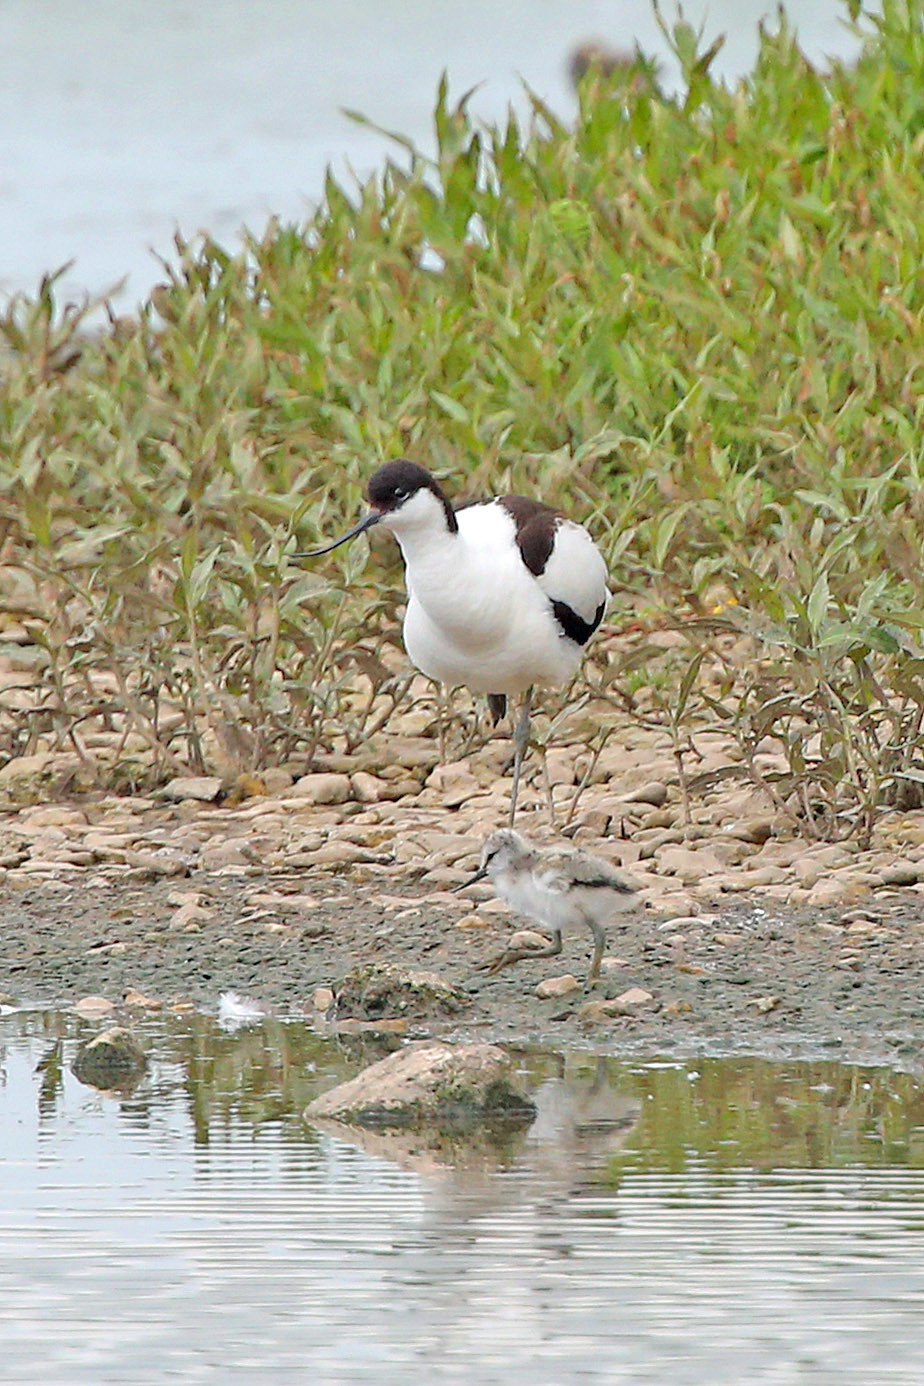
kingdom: Animalia
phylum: Chordata
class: Aves
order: Charadriiformes
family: Recurvirostridae
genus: Recurvirostra
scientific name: Recurvirostra avosetta
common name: Pied avocet
